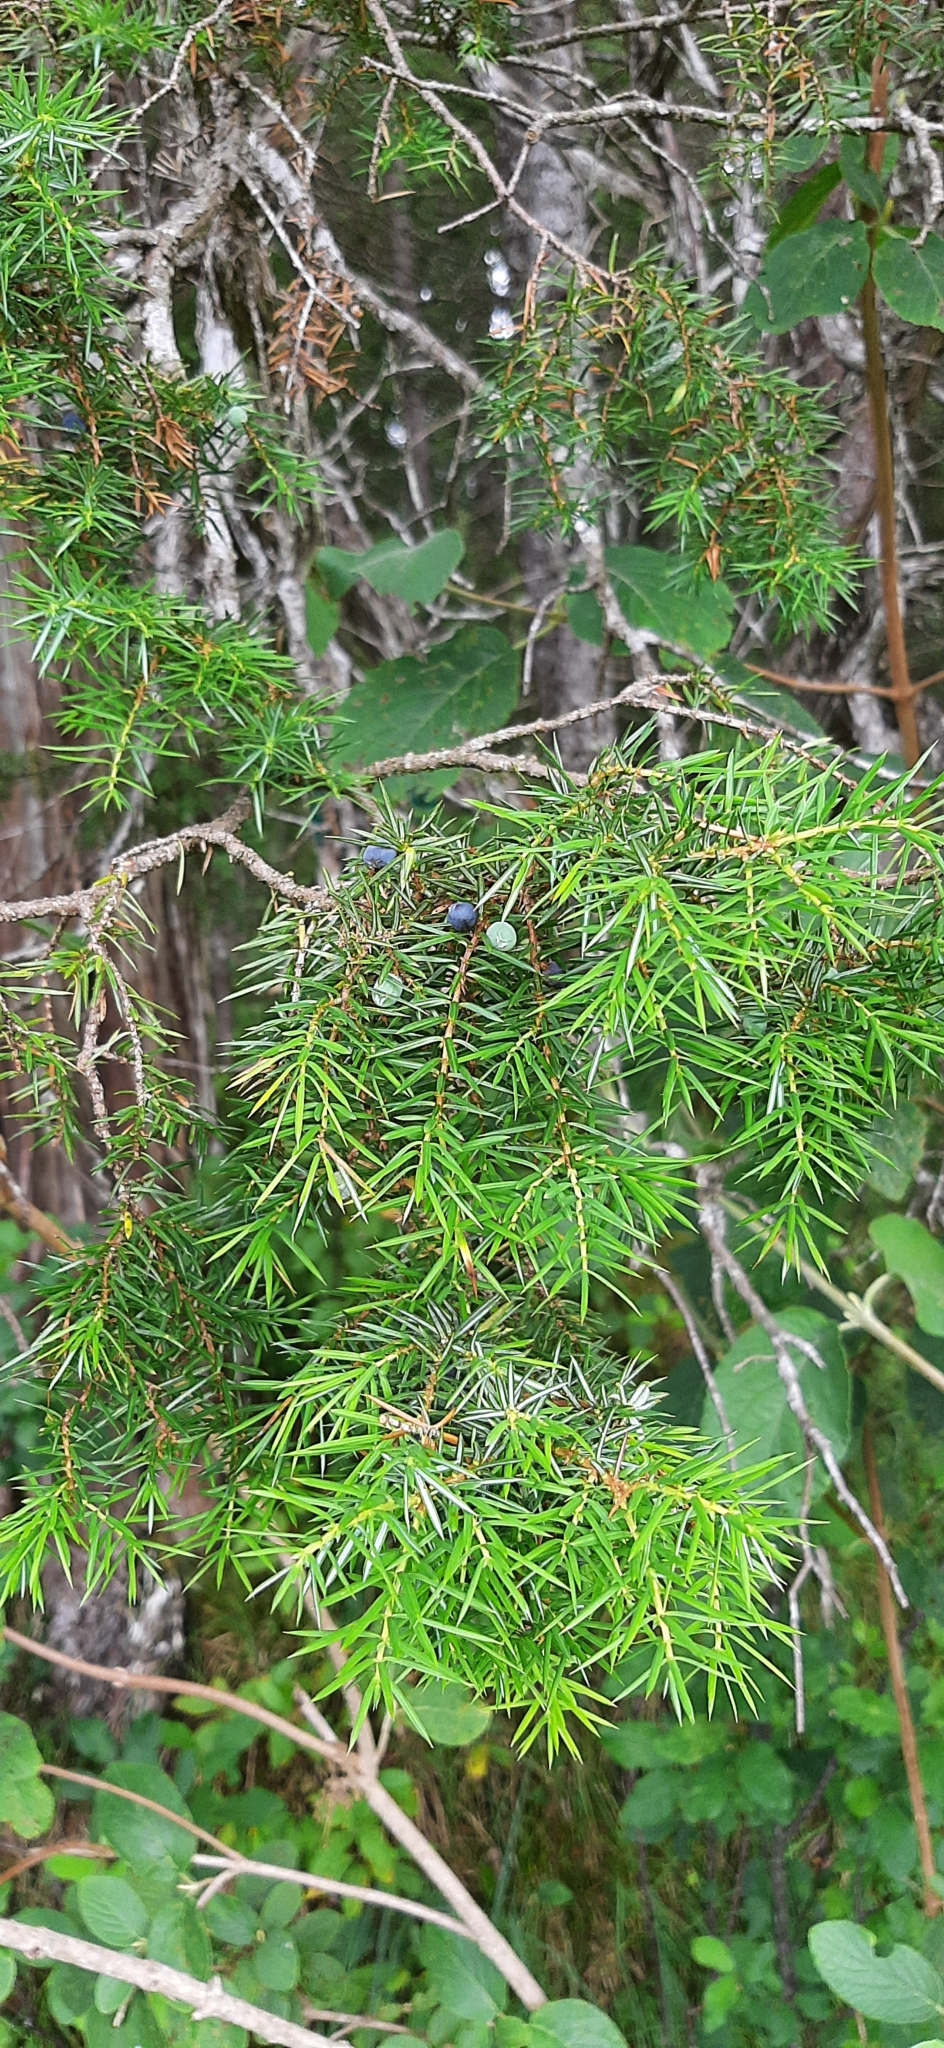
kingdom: Plantae
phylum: Tracheophyta
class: Pinopsida
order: Pinales
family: Cupressaceae
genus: Juniperus
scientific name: Juniperus communis
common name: Common juniper
